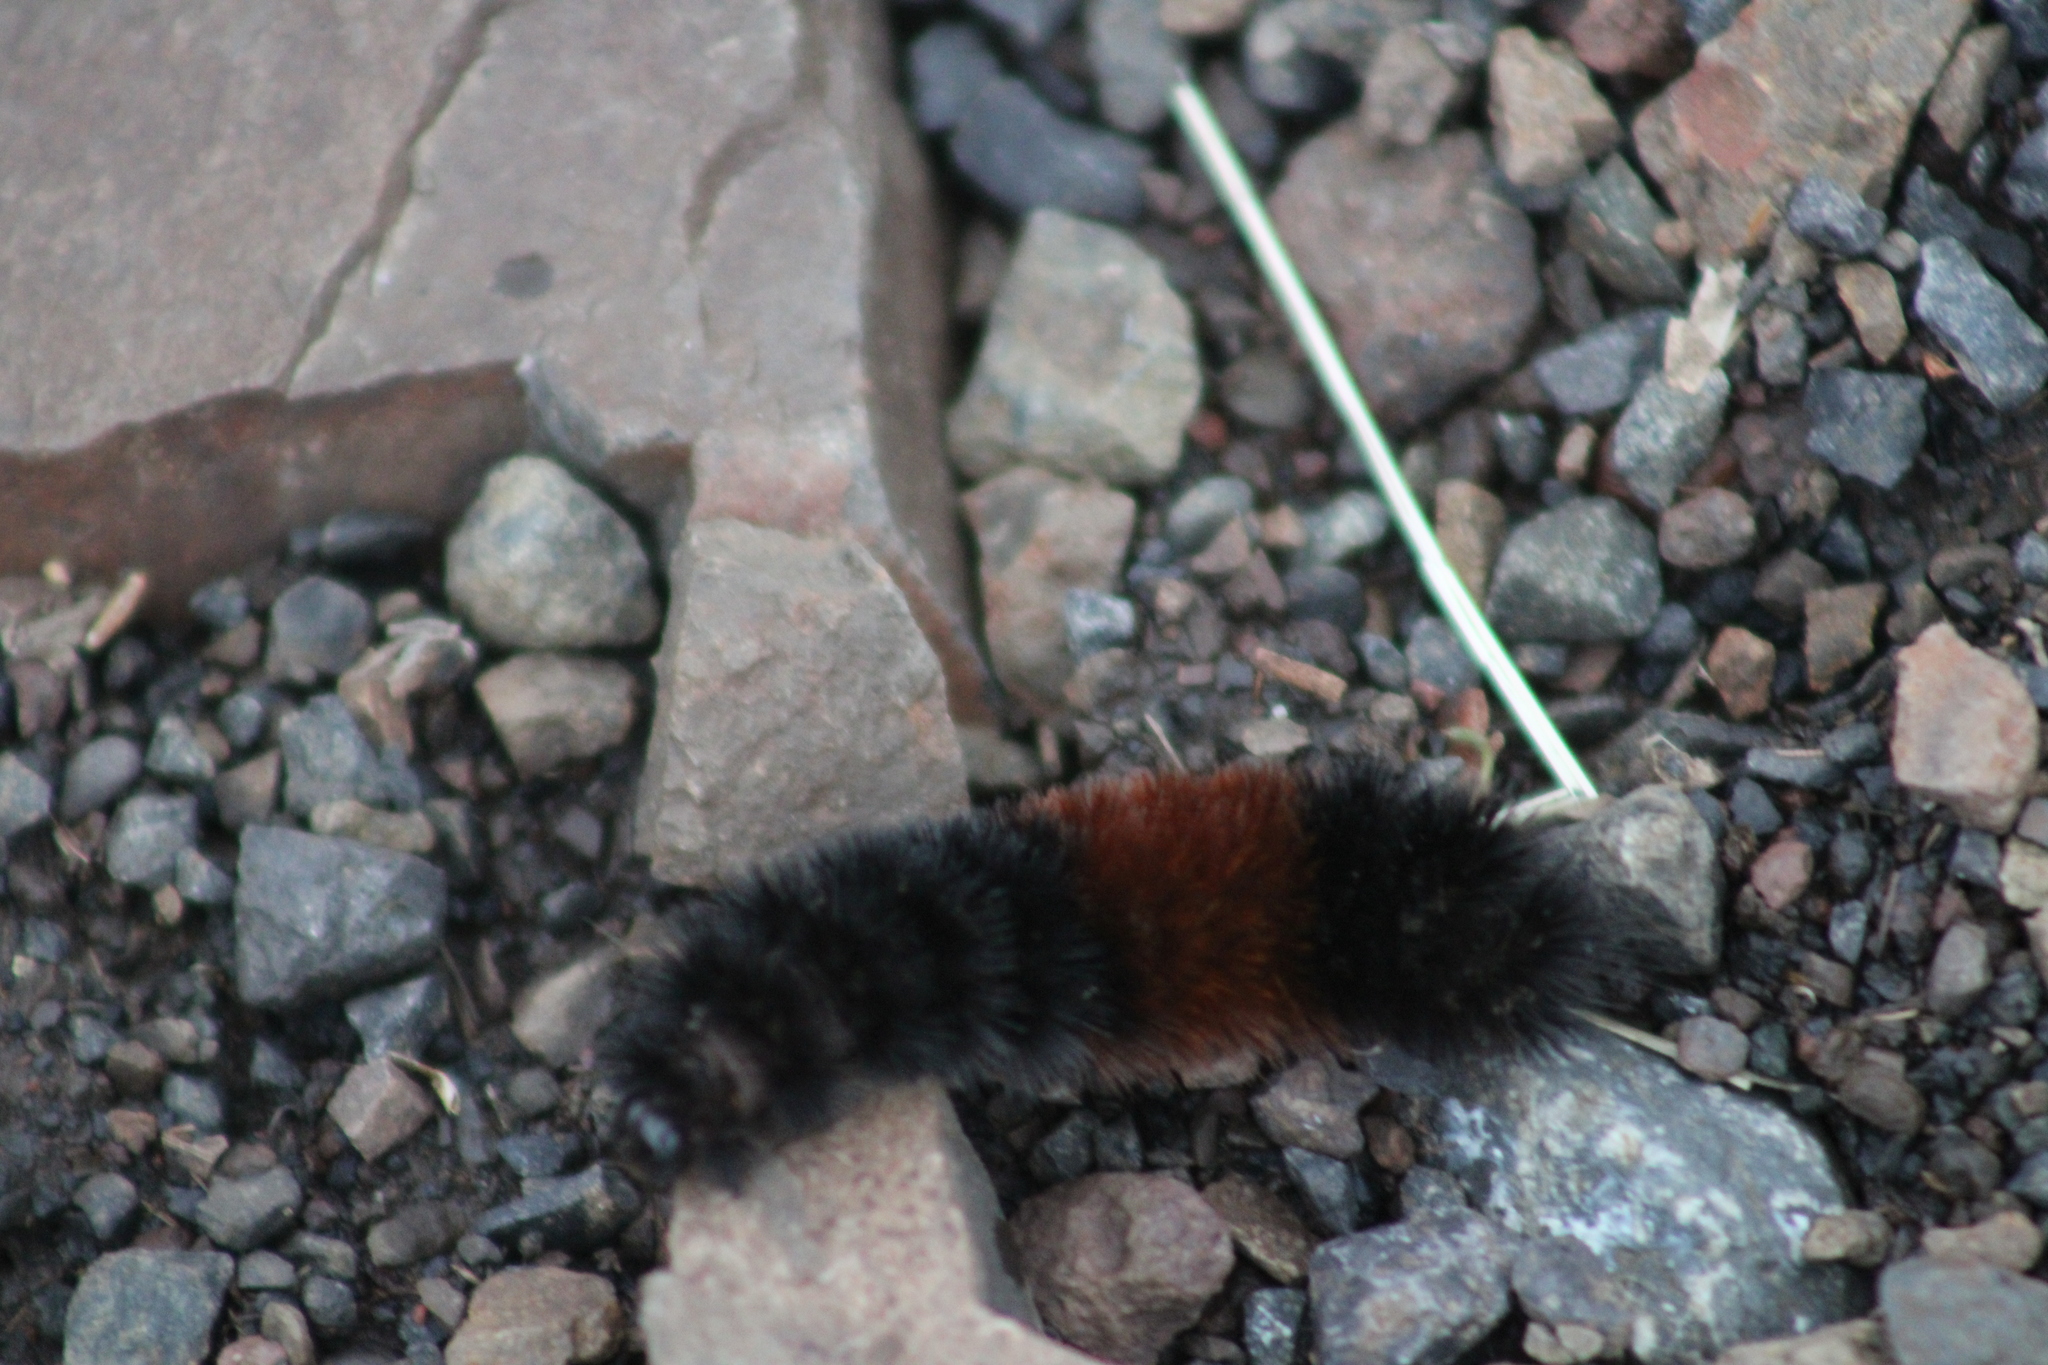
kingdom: Animalia
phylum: Arthropoda
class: Insecta
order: Lepidoptera
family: Erebidae
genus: Pyrrharctia
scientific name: Pyrrharctia isabella
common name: Isabella tiger moth
